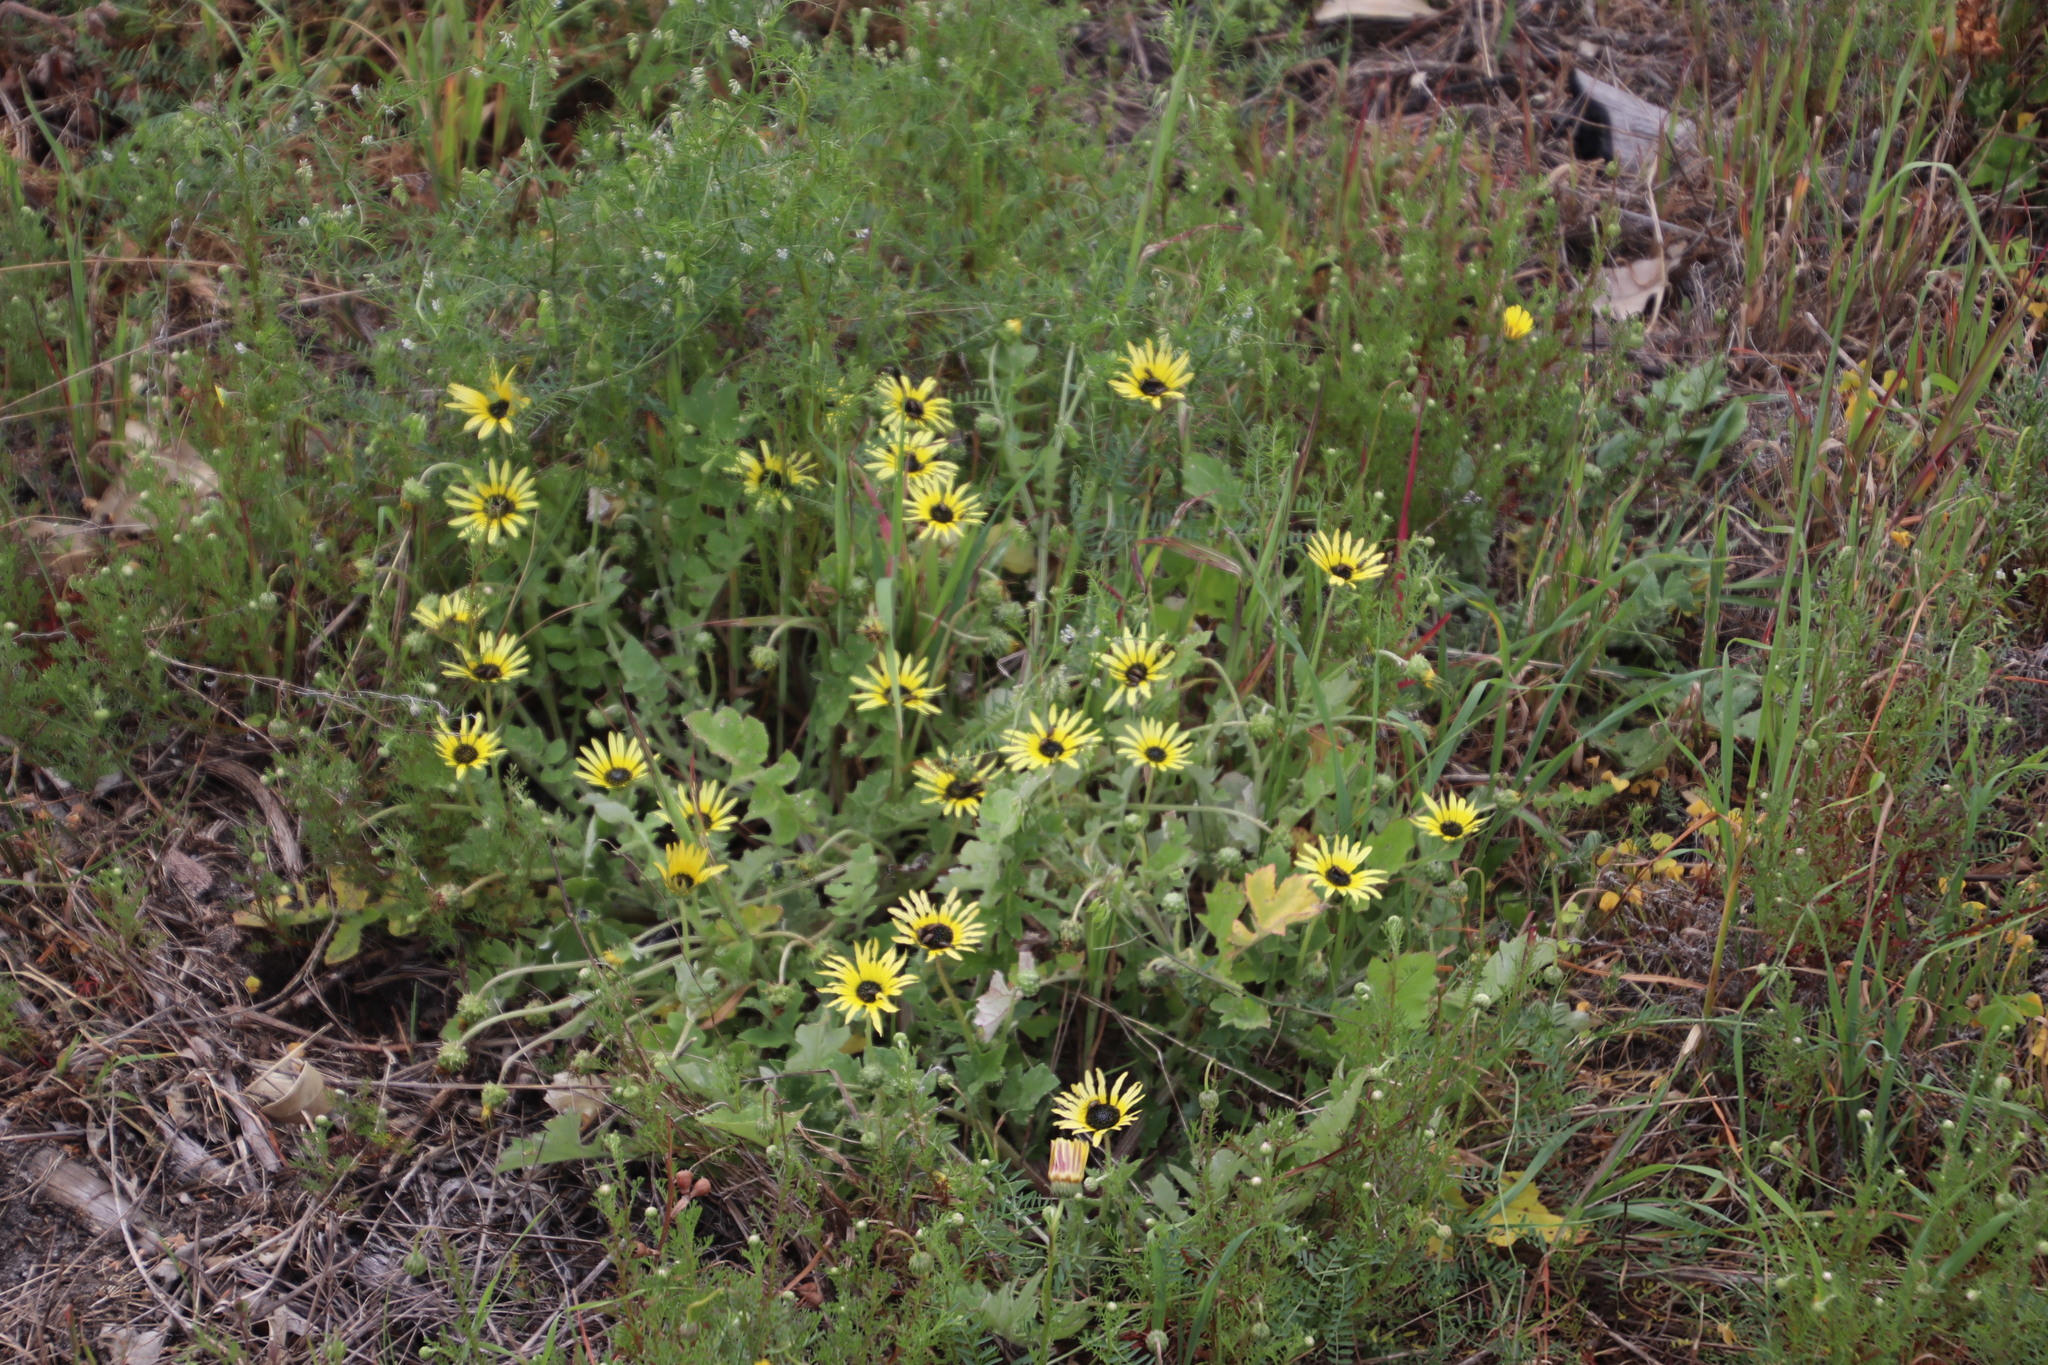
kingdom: Plantae
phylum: Tracheophyta
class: Magnoliopsida
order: Asterales
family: Asteraceae
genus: Arctotheca
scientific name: Arctotheca calendula
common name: Capeweed
